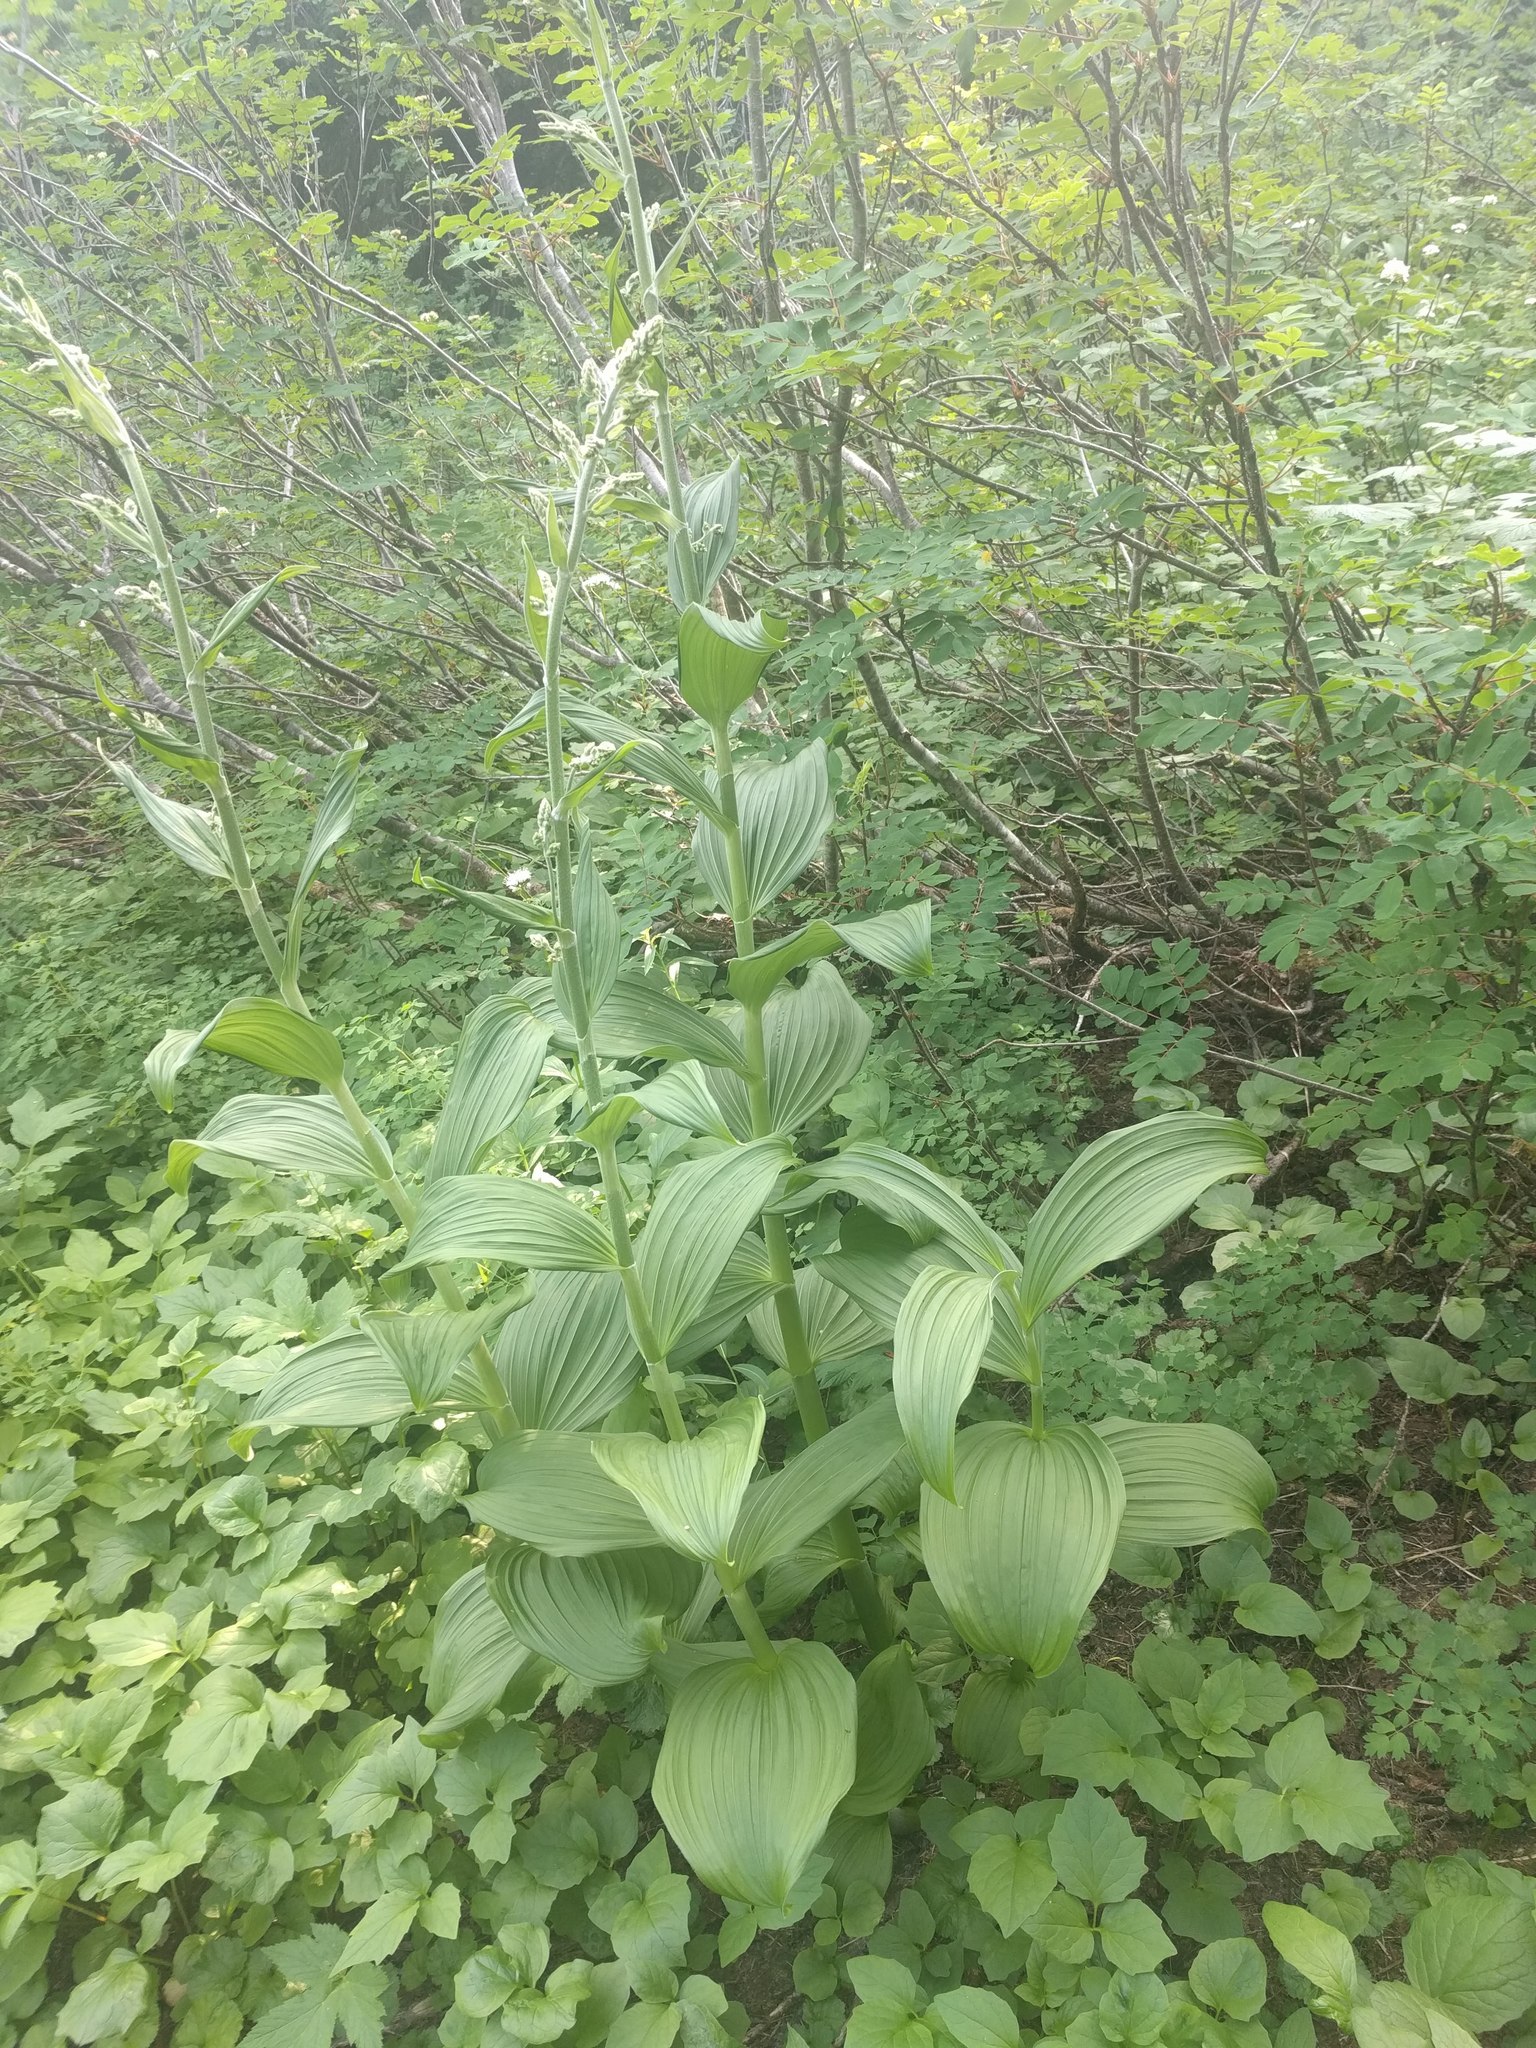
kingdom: Plantae
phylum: Tracheophyta
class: Liliopsida
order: Liliales
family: Melanthiaceae
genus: Veratrum
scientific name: Veratrum viride
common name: American false hellebore
